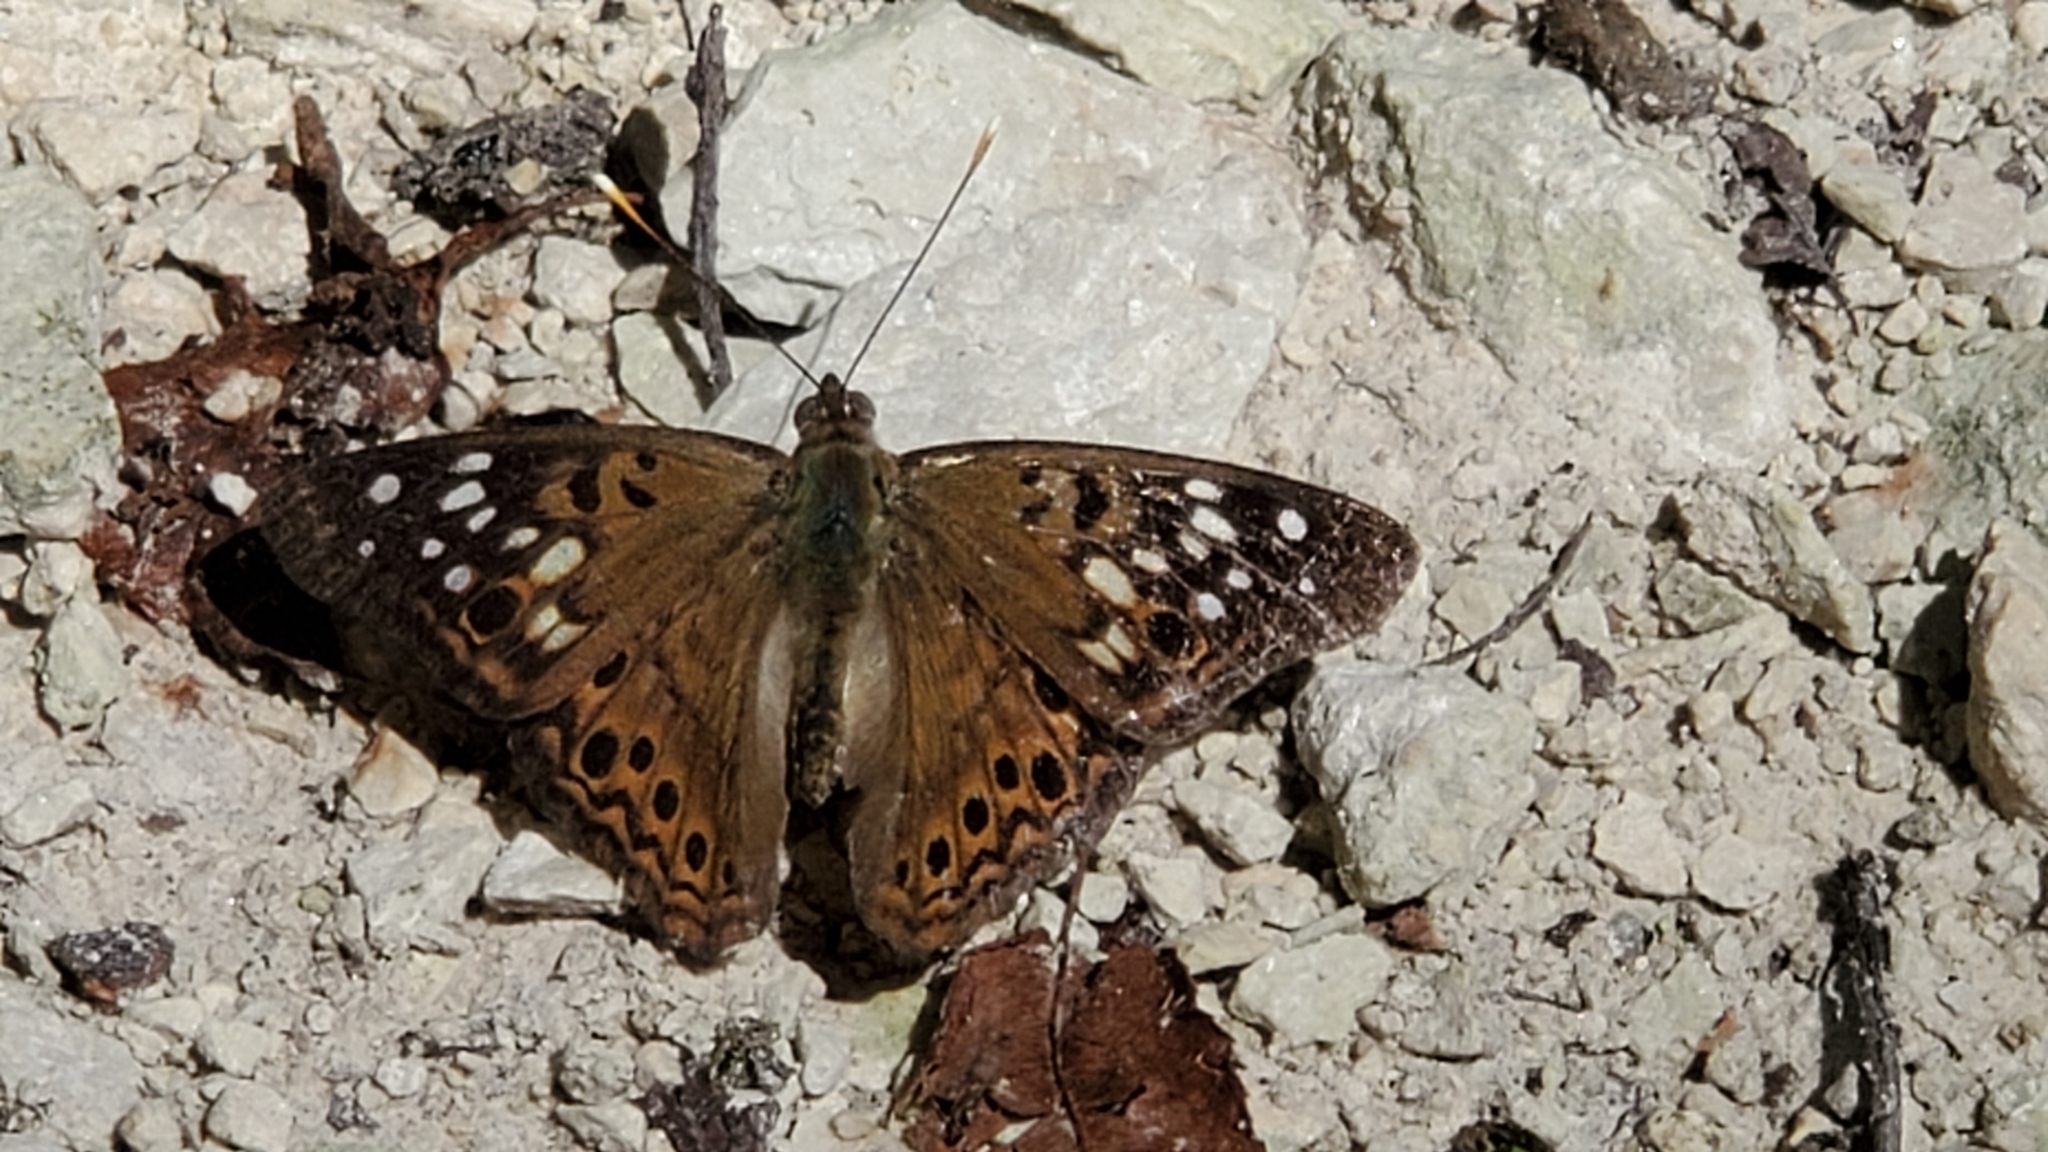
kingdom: Animalia
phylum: Arthropoda
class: Insecta
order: Lepidoptera
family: Nymphalidae
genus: Asterocampa
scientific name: Asterocampa celtis
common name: Hackberry emperor
